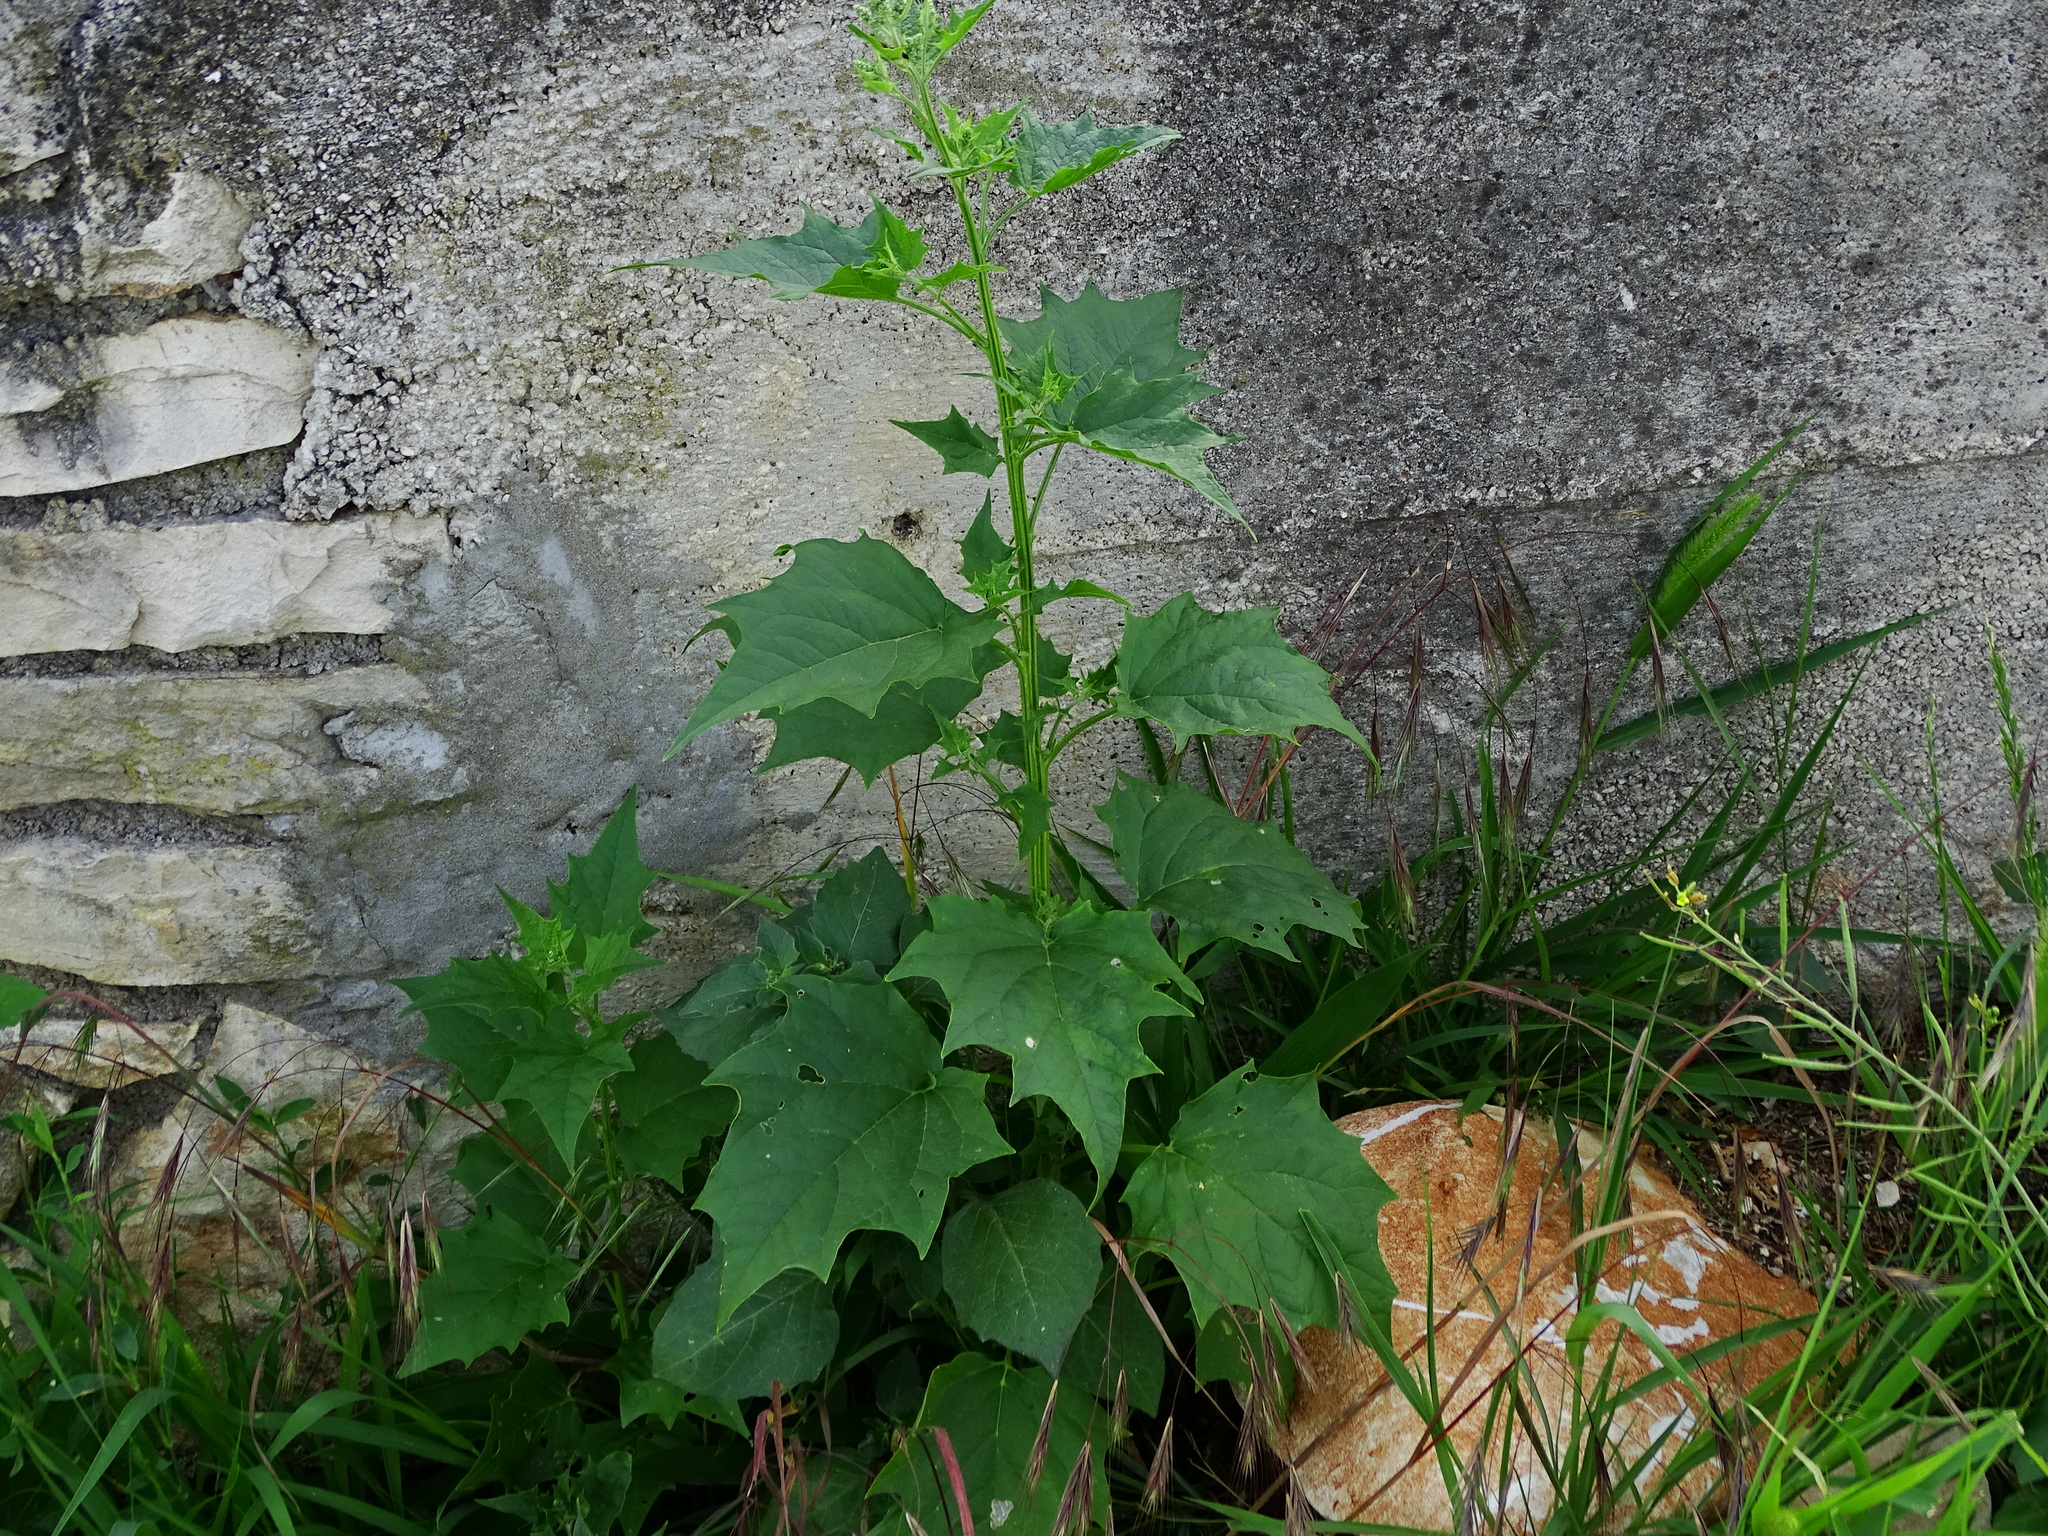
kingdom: Plantae
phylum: Tracheophyta
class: Magnoliopsida
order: Caryophyllales
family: Amaranthaceae
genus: Chenopodiastrum
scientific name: Chenopodiastrum hybridum
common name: Mapleleaf goosefoot
